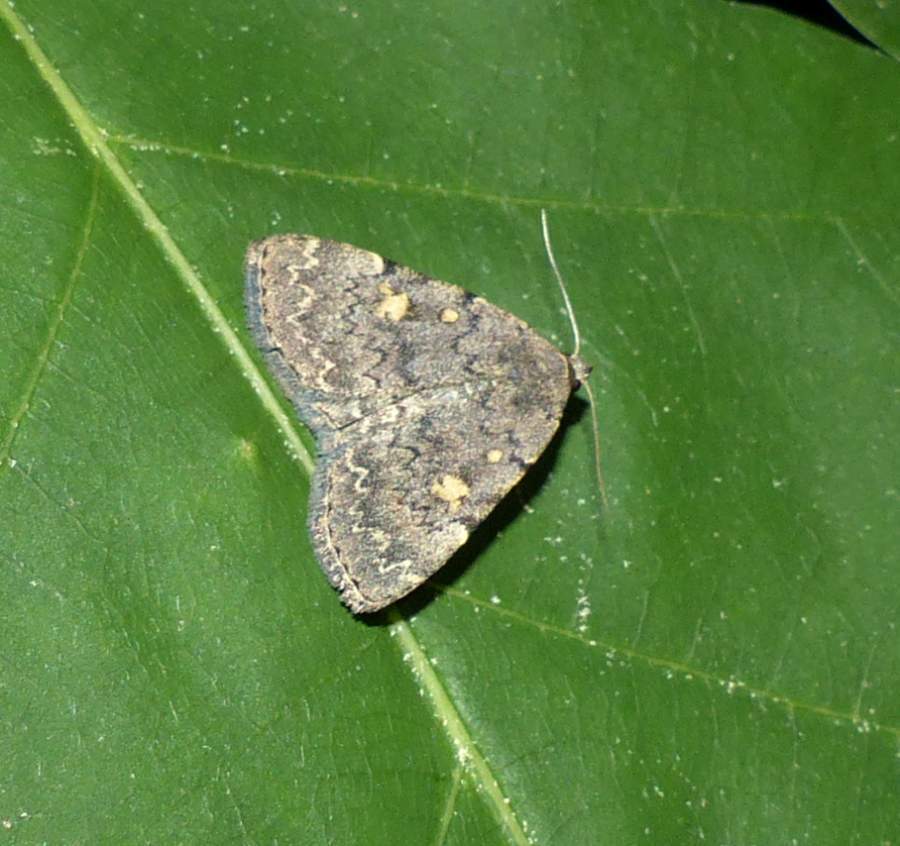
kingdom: Animalia
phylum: Arthropoda
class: Insecta
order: Lepidoptera
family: Erebidae
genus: Idia
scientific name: Idia aemula
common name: Common idia moth
